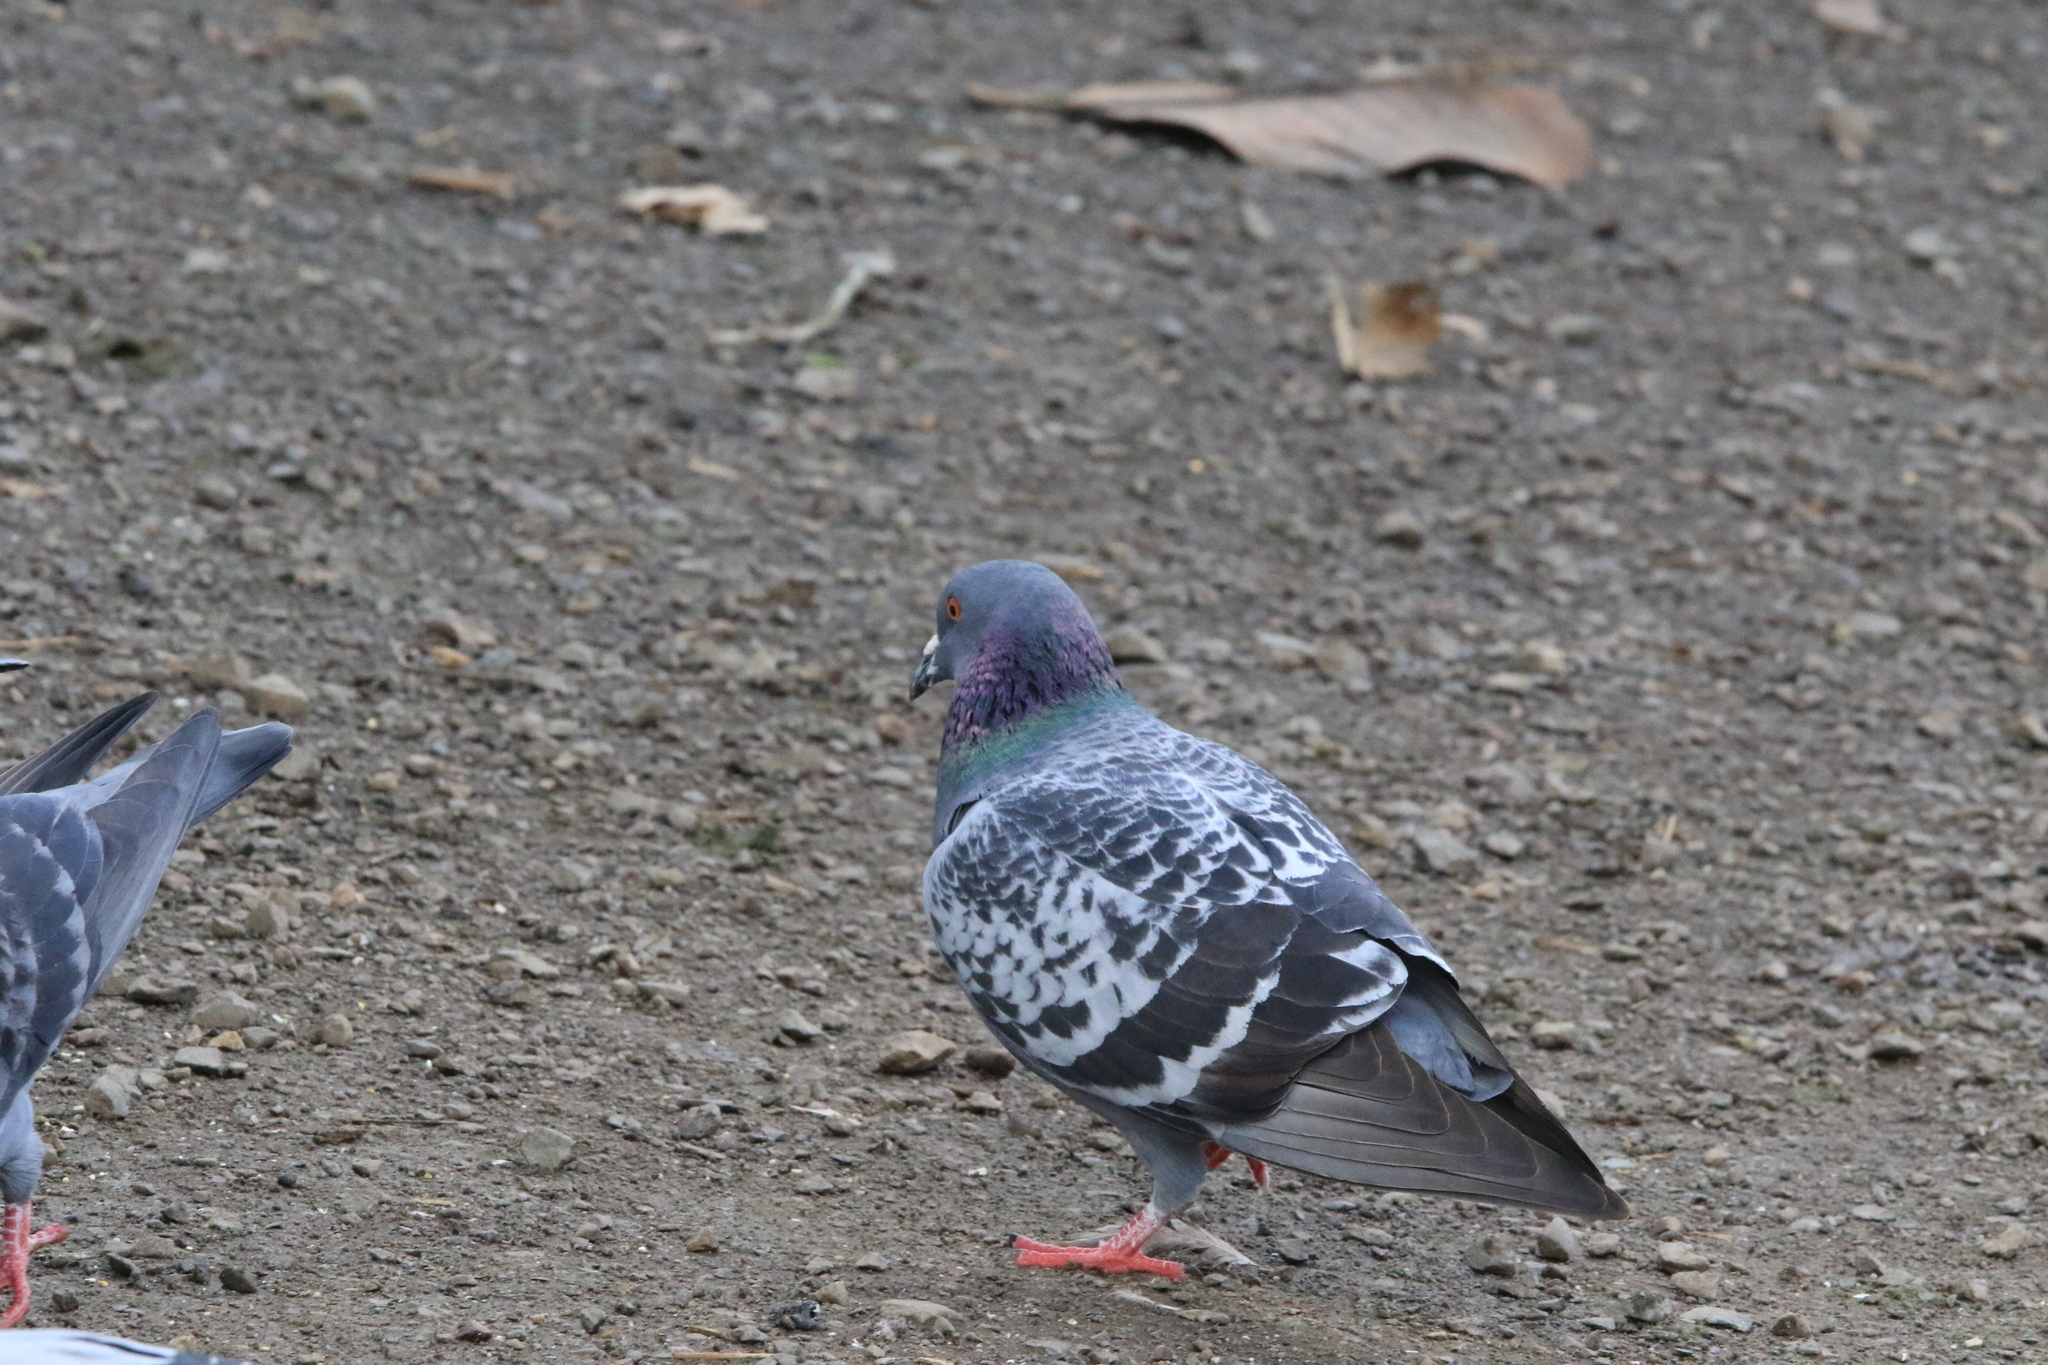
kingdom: Animalia
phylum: Chordata
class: Aves
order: Columbiformes
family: Columbidae
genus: Columba
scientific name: Columba livia
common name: Rock pigeon
